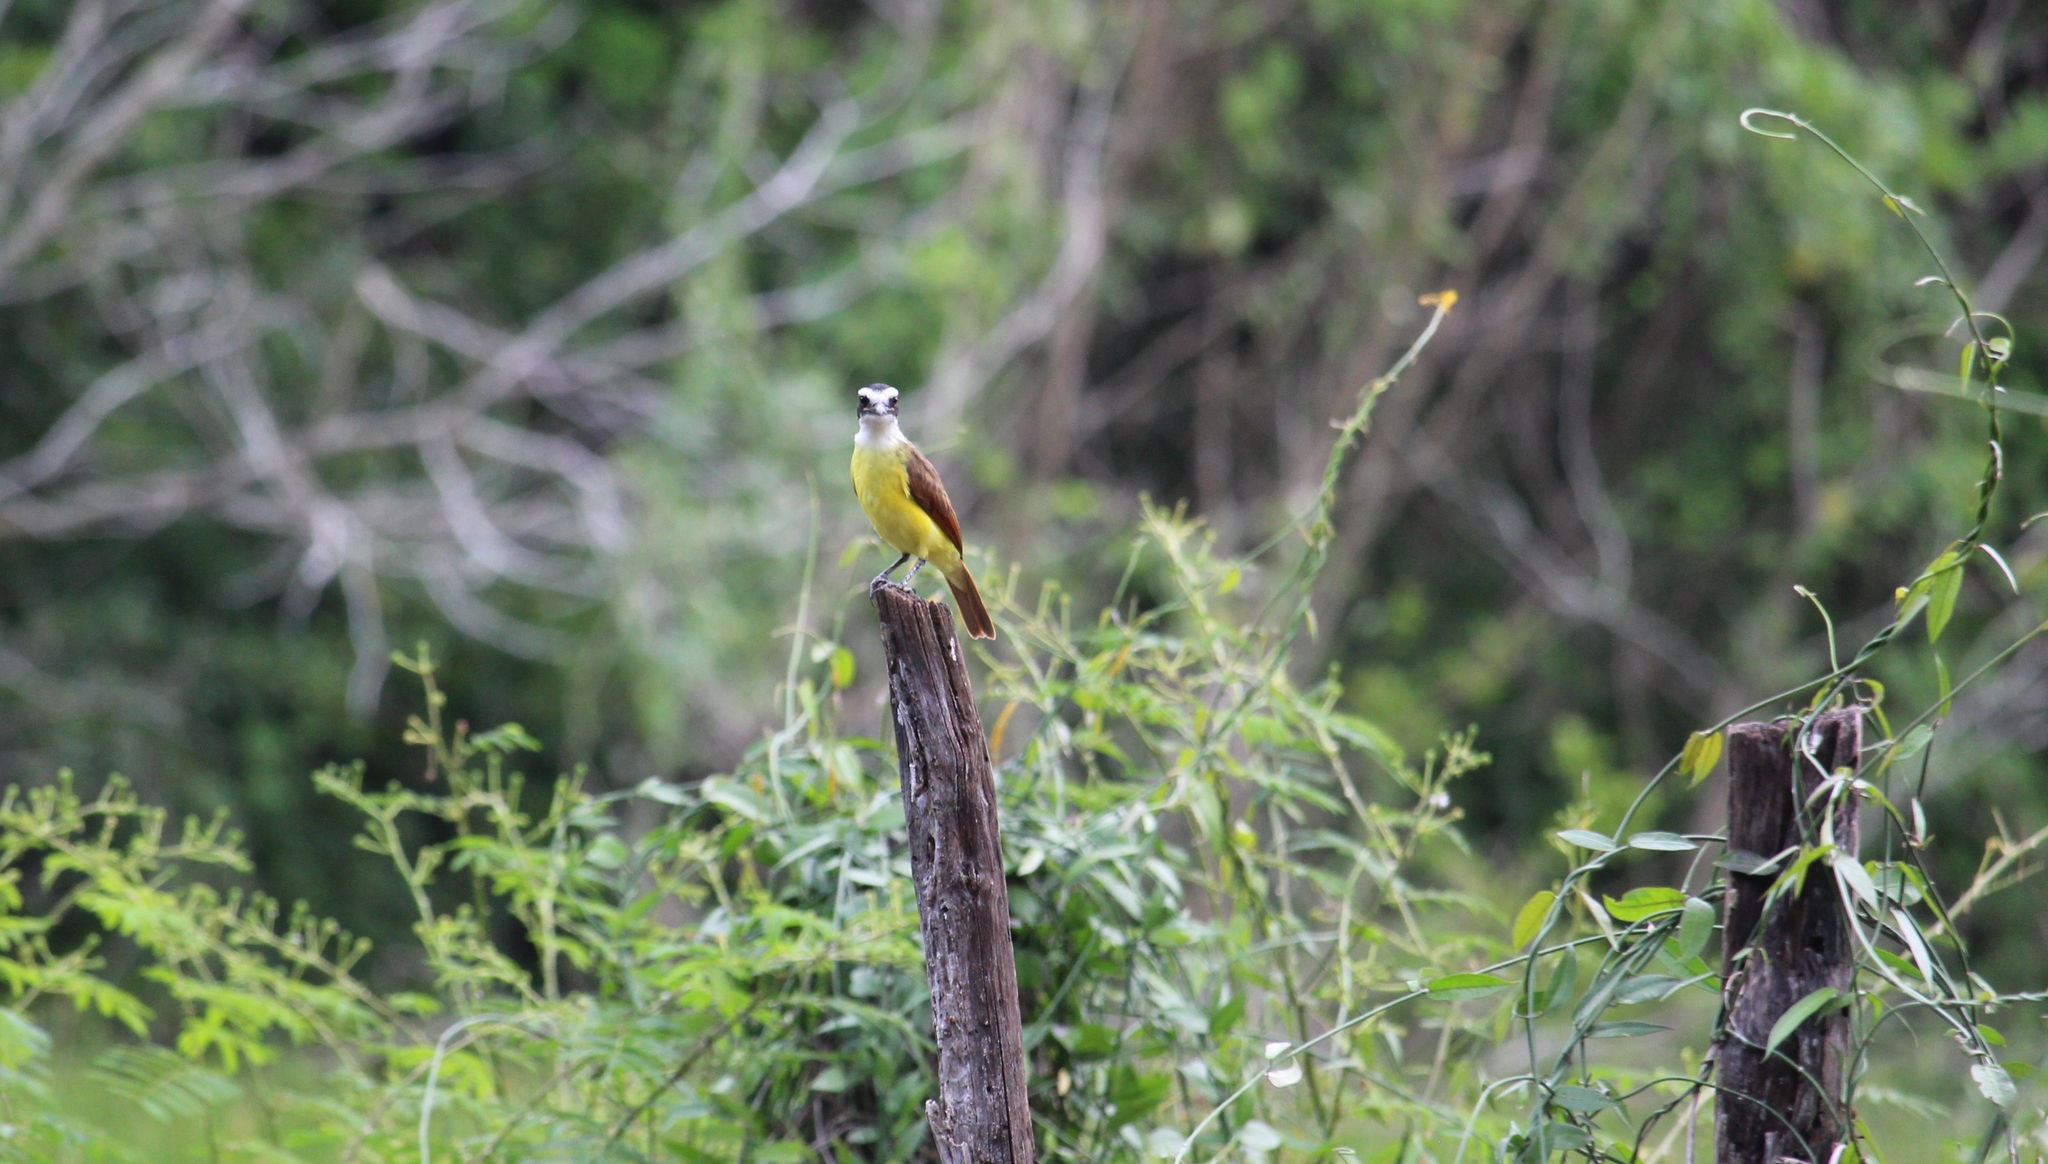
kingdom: Animalia
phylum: Chordata
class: Aves
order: Passeriformes
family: Tyrannidae
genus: Pitangus
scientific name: Pitangus sulphuratus
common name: Great kiskadee
